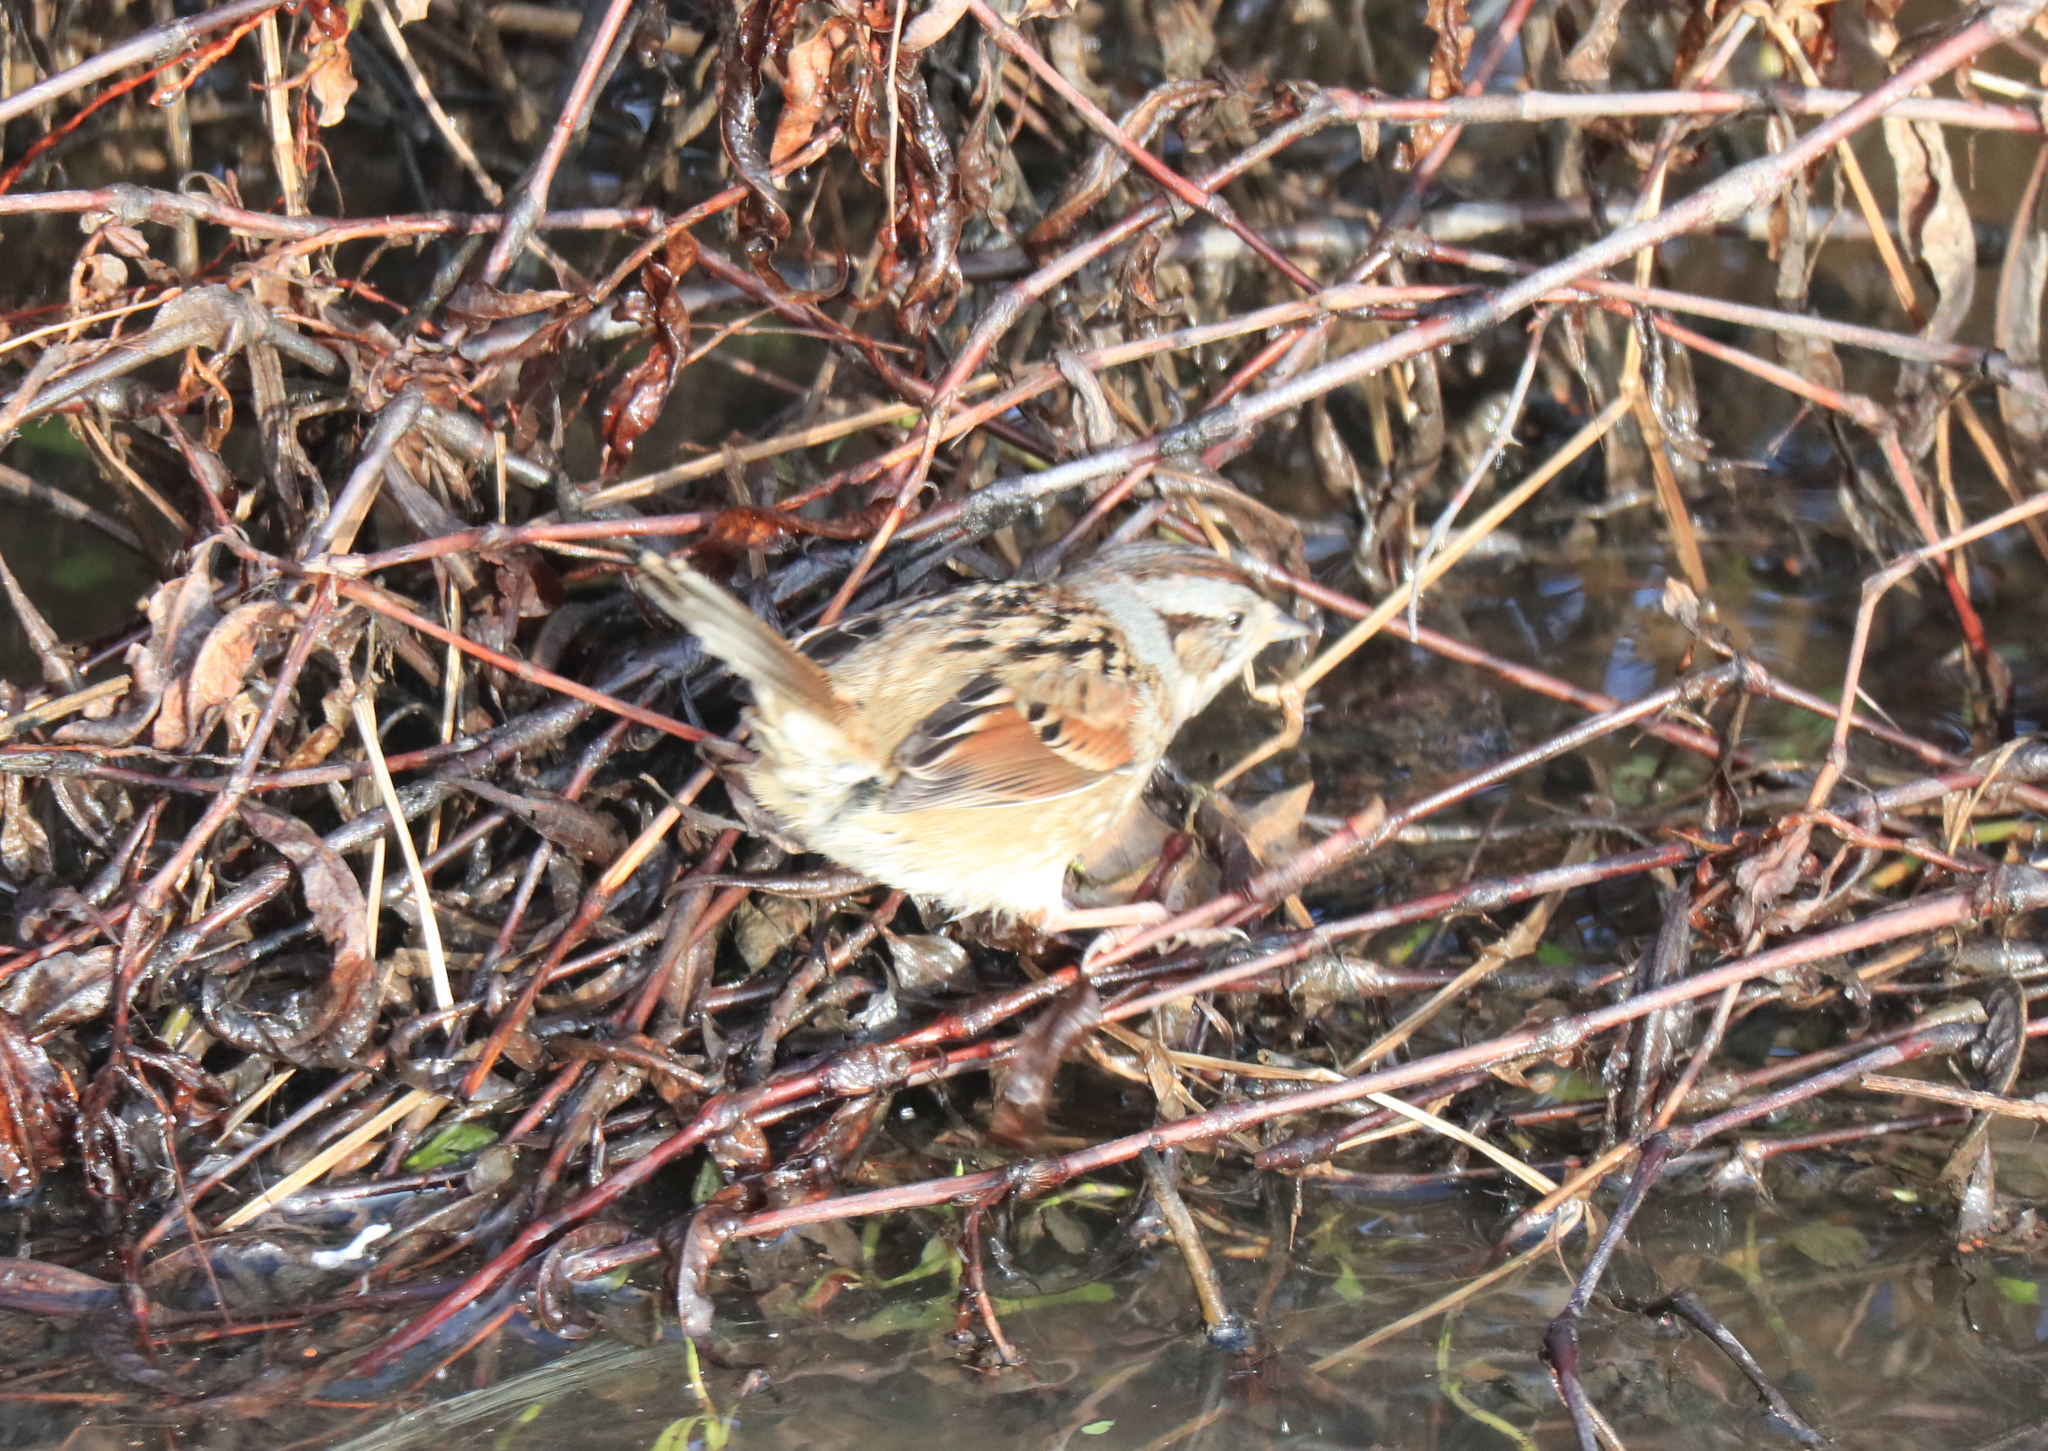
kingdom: Animalia
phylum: Chordata
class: Aves
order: Passeriformes
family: Passerellidae
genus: Melospiza
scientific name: Melospiza georgiana
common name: Swamp sparrow
